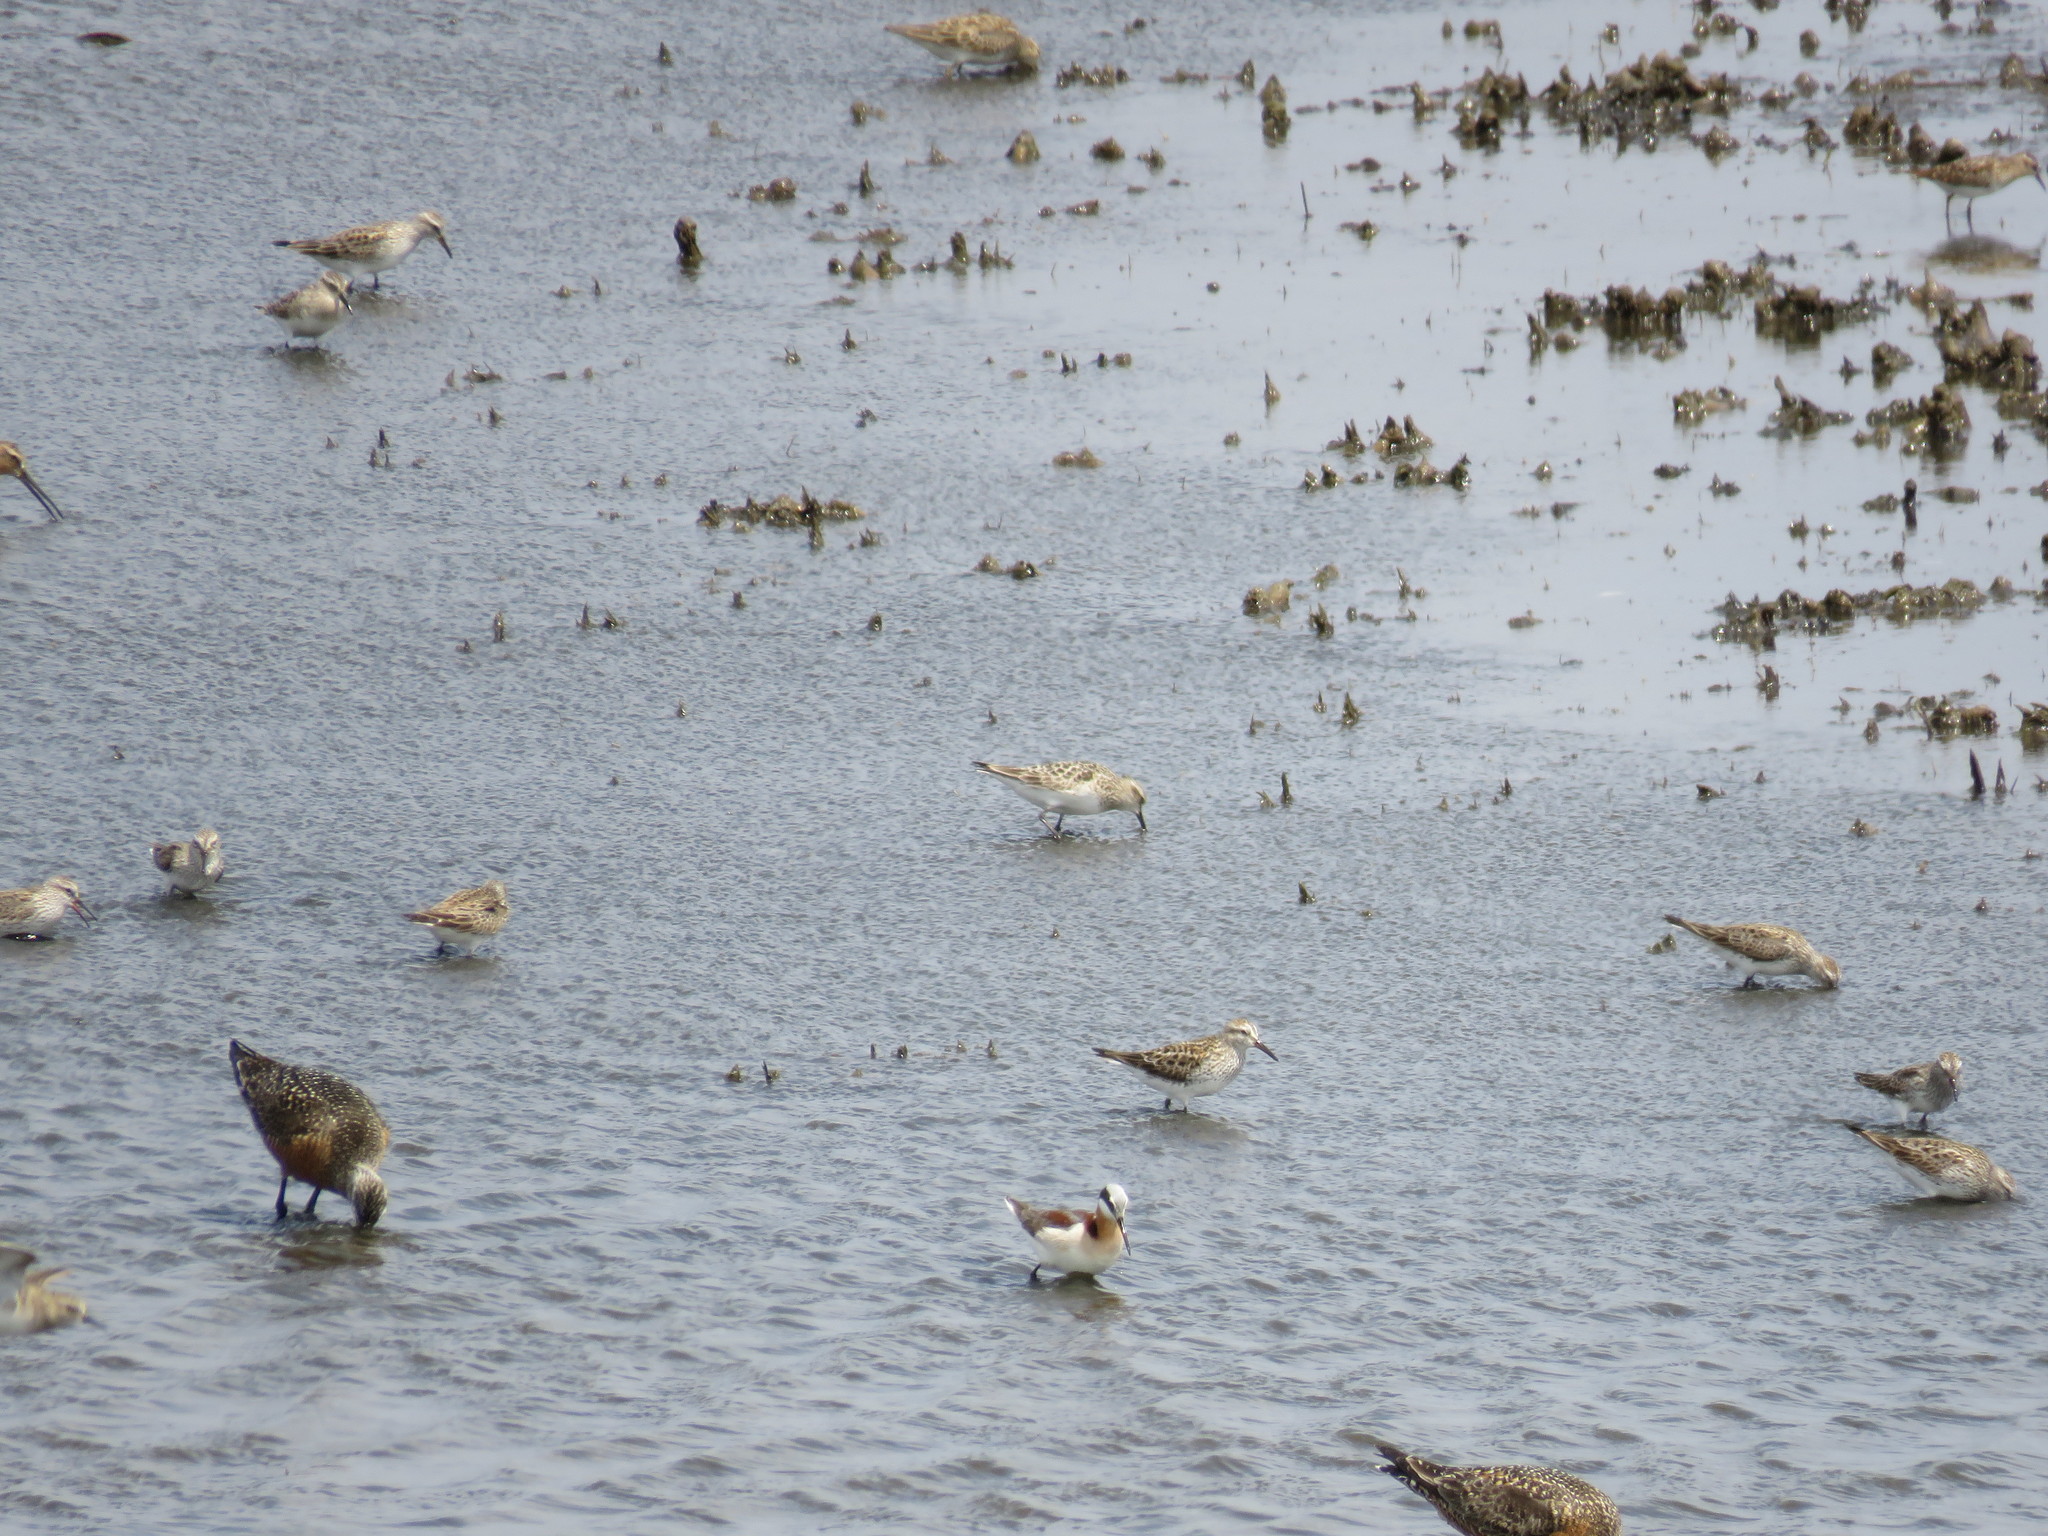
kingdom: Animalia
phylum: Chordata
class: Aves
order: Charadriiformes
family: Scolopacidae
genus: Phalaropus
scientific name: Phalaropus tricolor
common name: Wilson's phalarope
